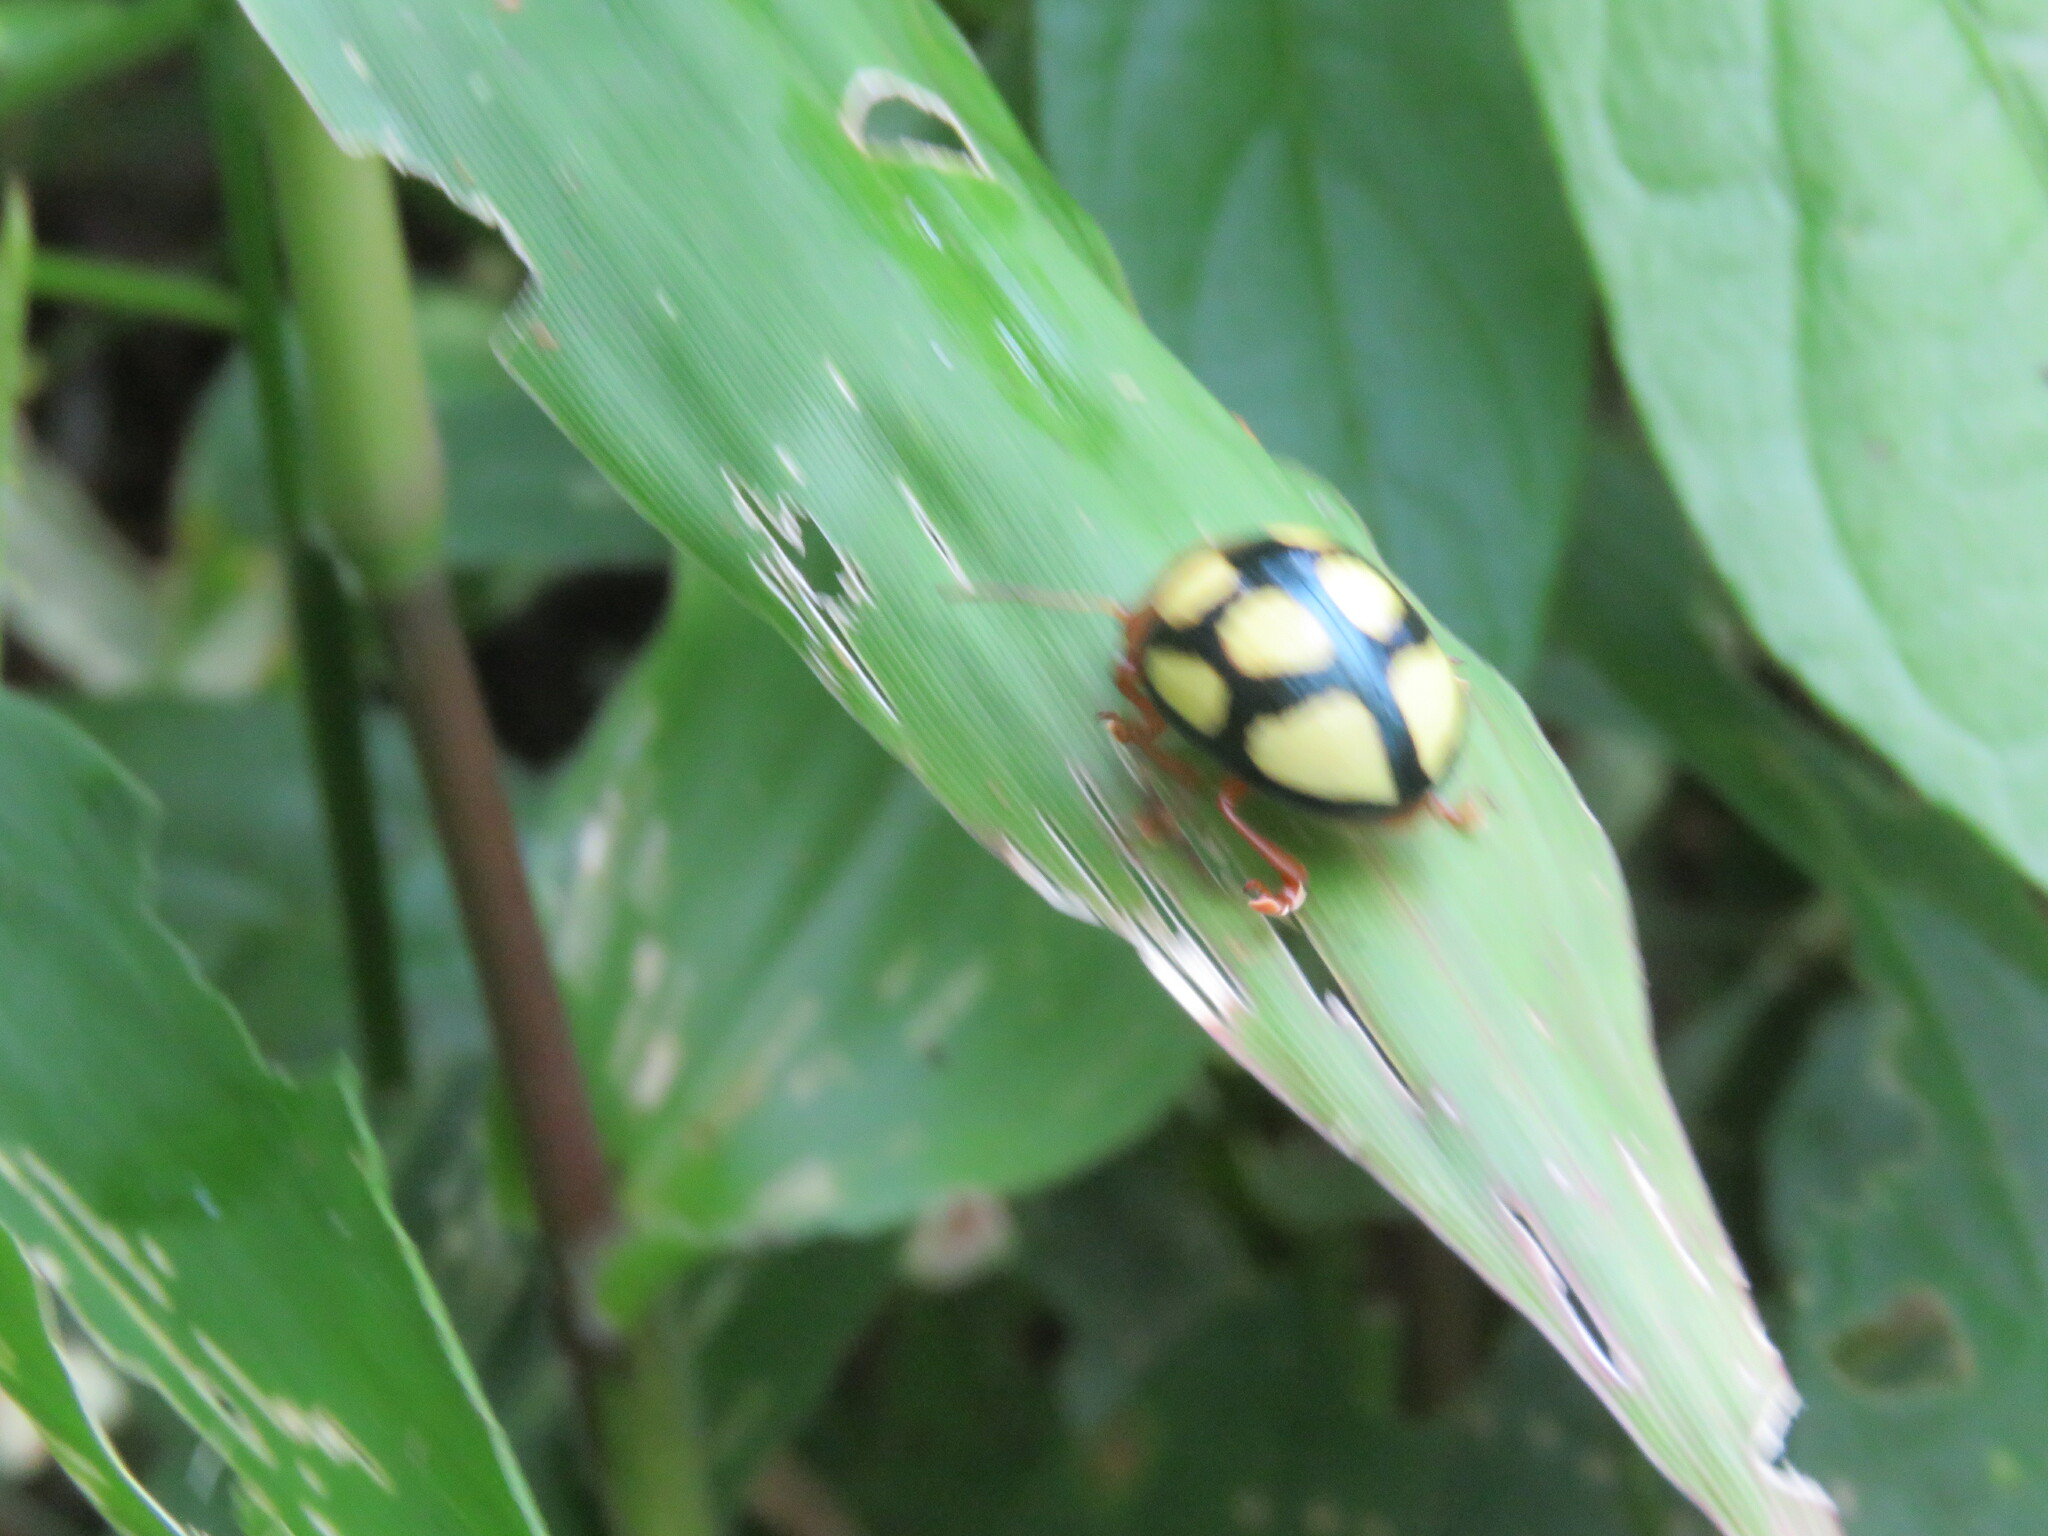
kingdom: Animalia
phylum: Arthropoda
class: Insecta
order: Coleoptera
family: Chrysomelidae
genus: Platyphora
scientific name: Platyphora
